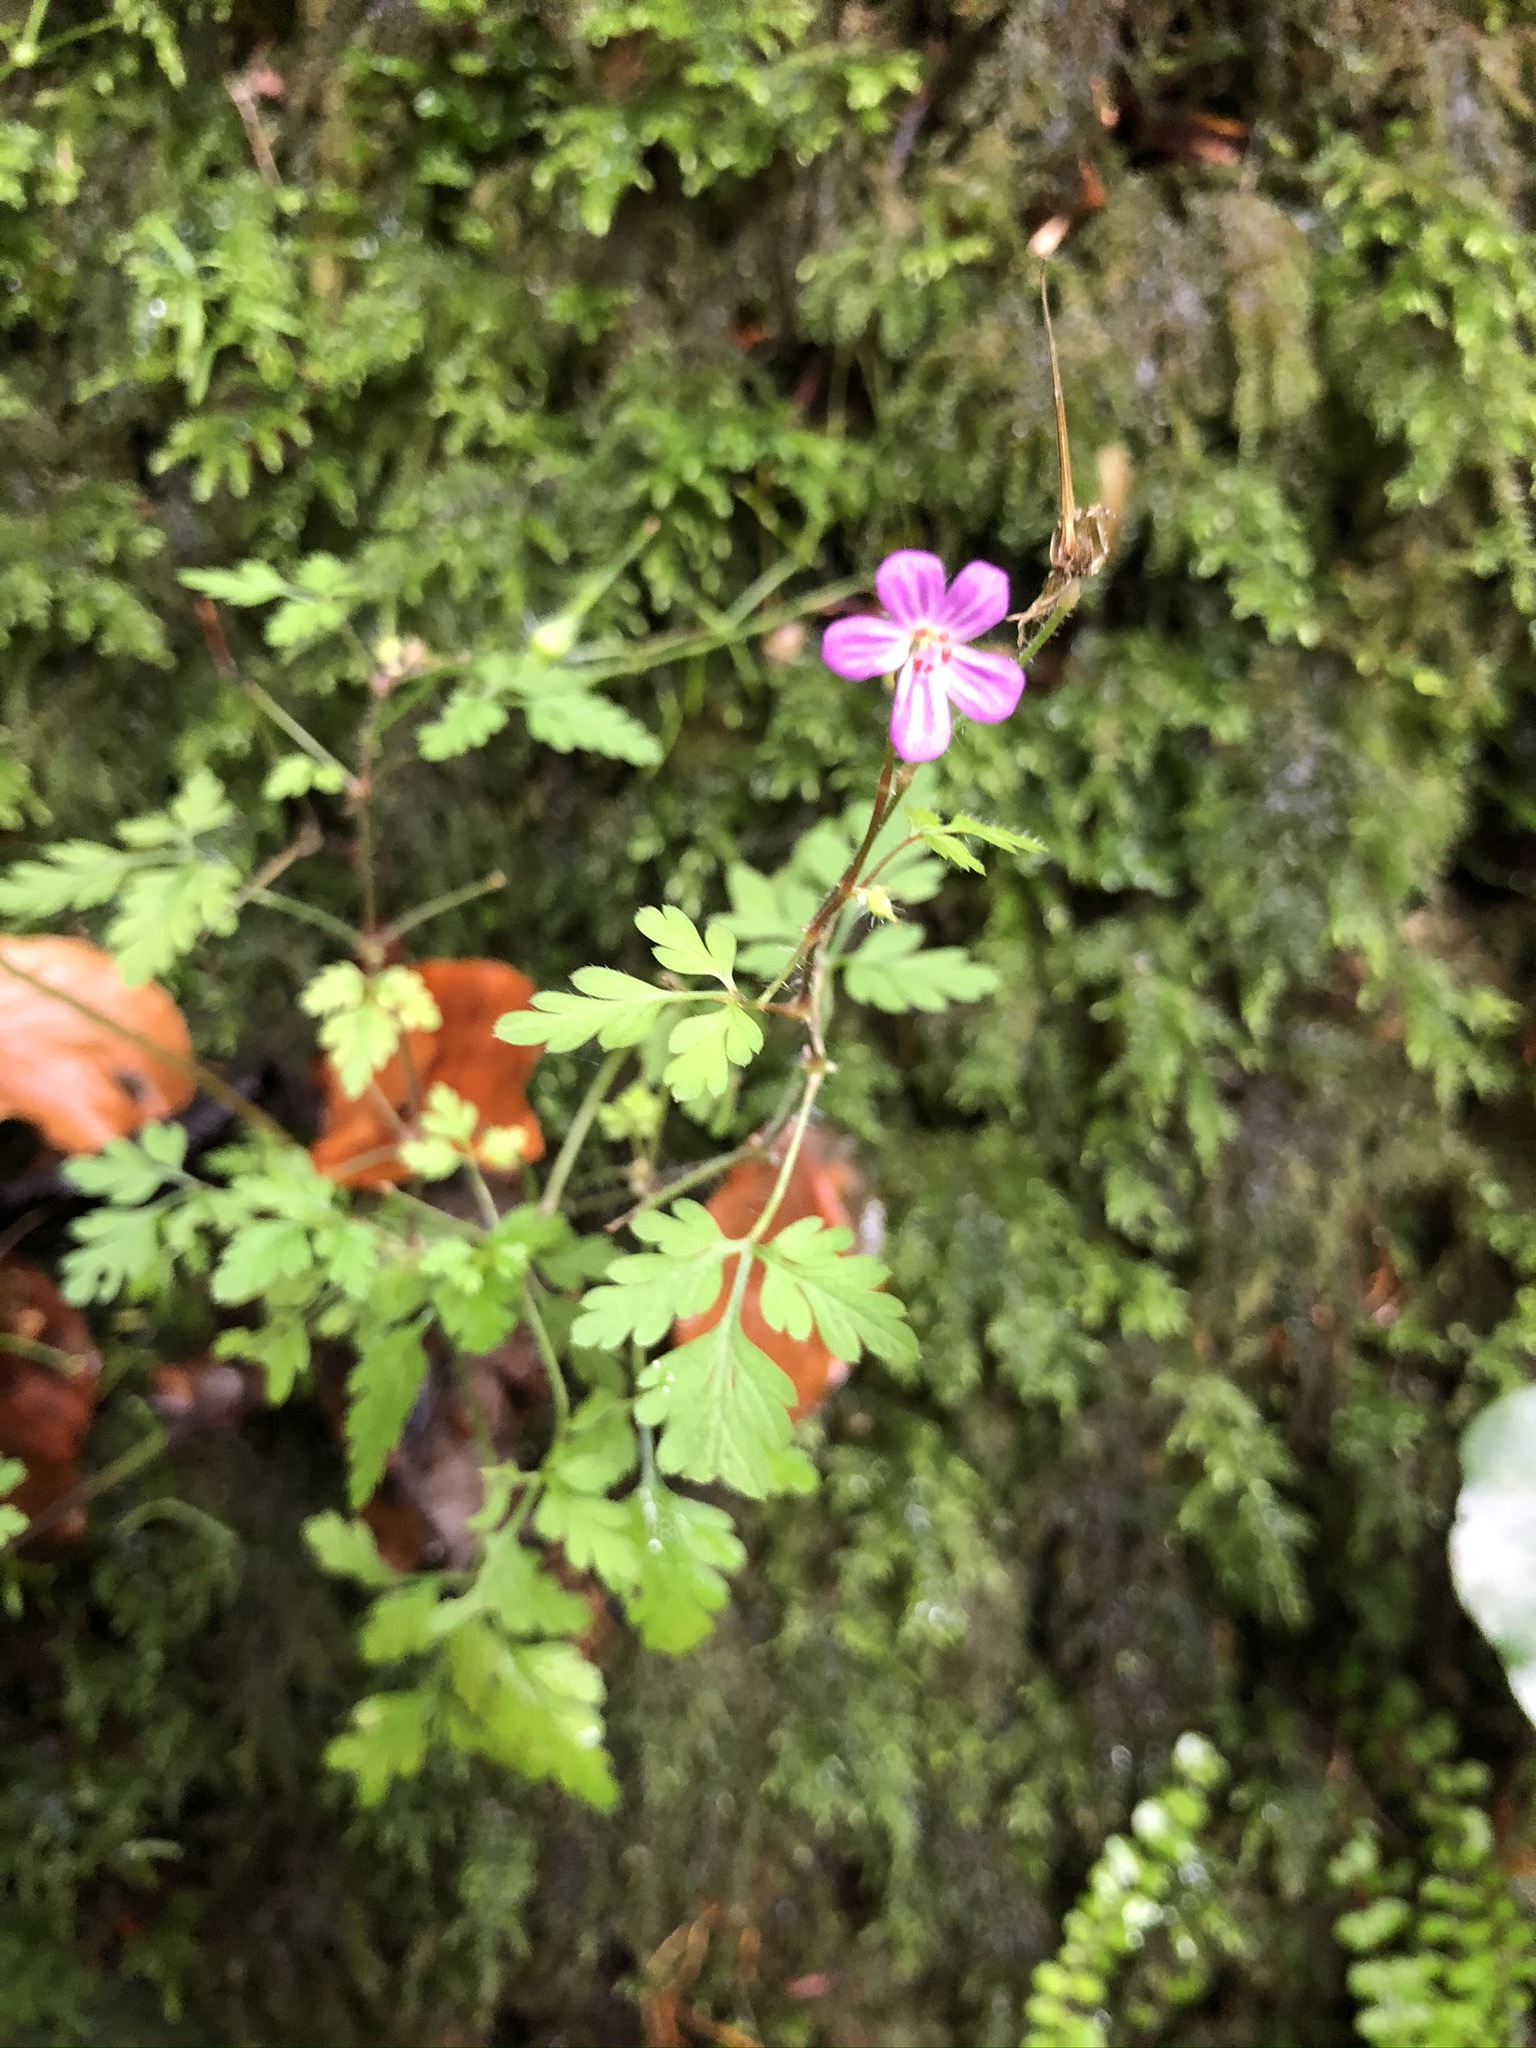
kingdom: Plantae
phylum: Tracheophyta
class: Magnoliopsida
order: Geraniales
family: Geraniaceae
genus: Geranium
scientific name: Geranium robertianum
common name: Herb-robert
